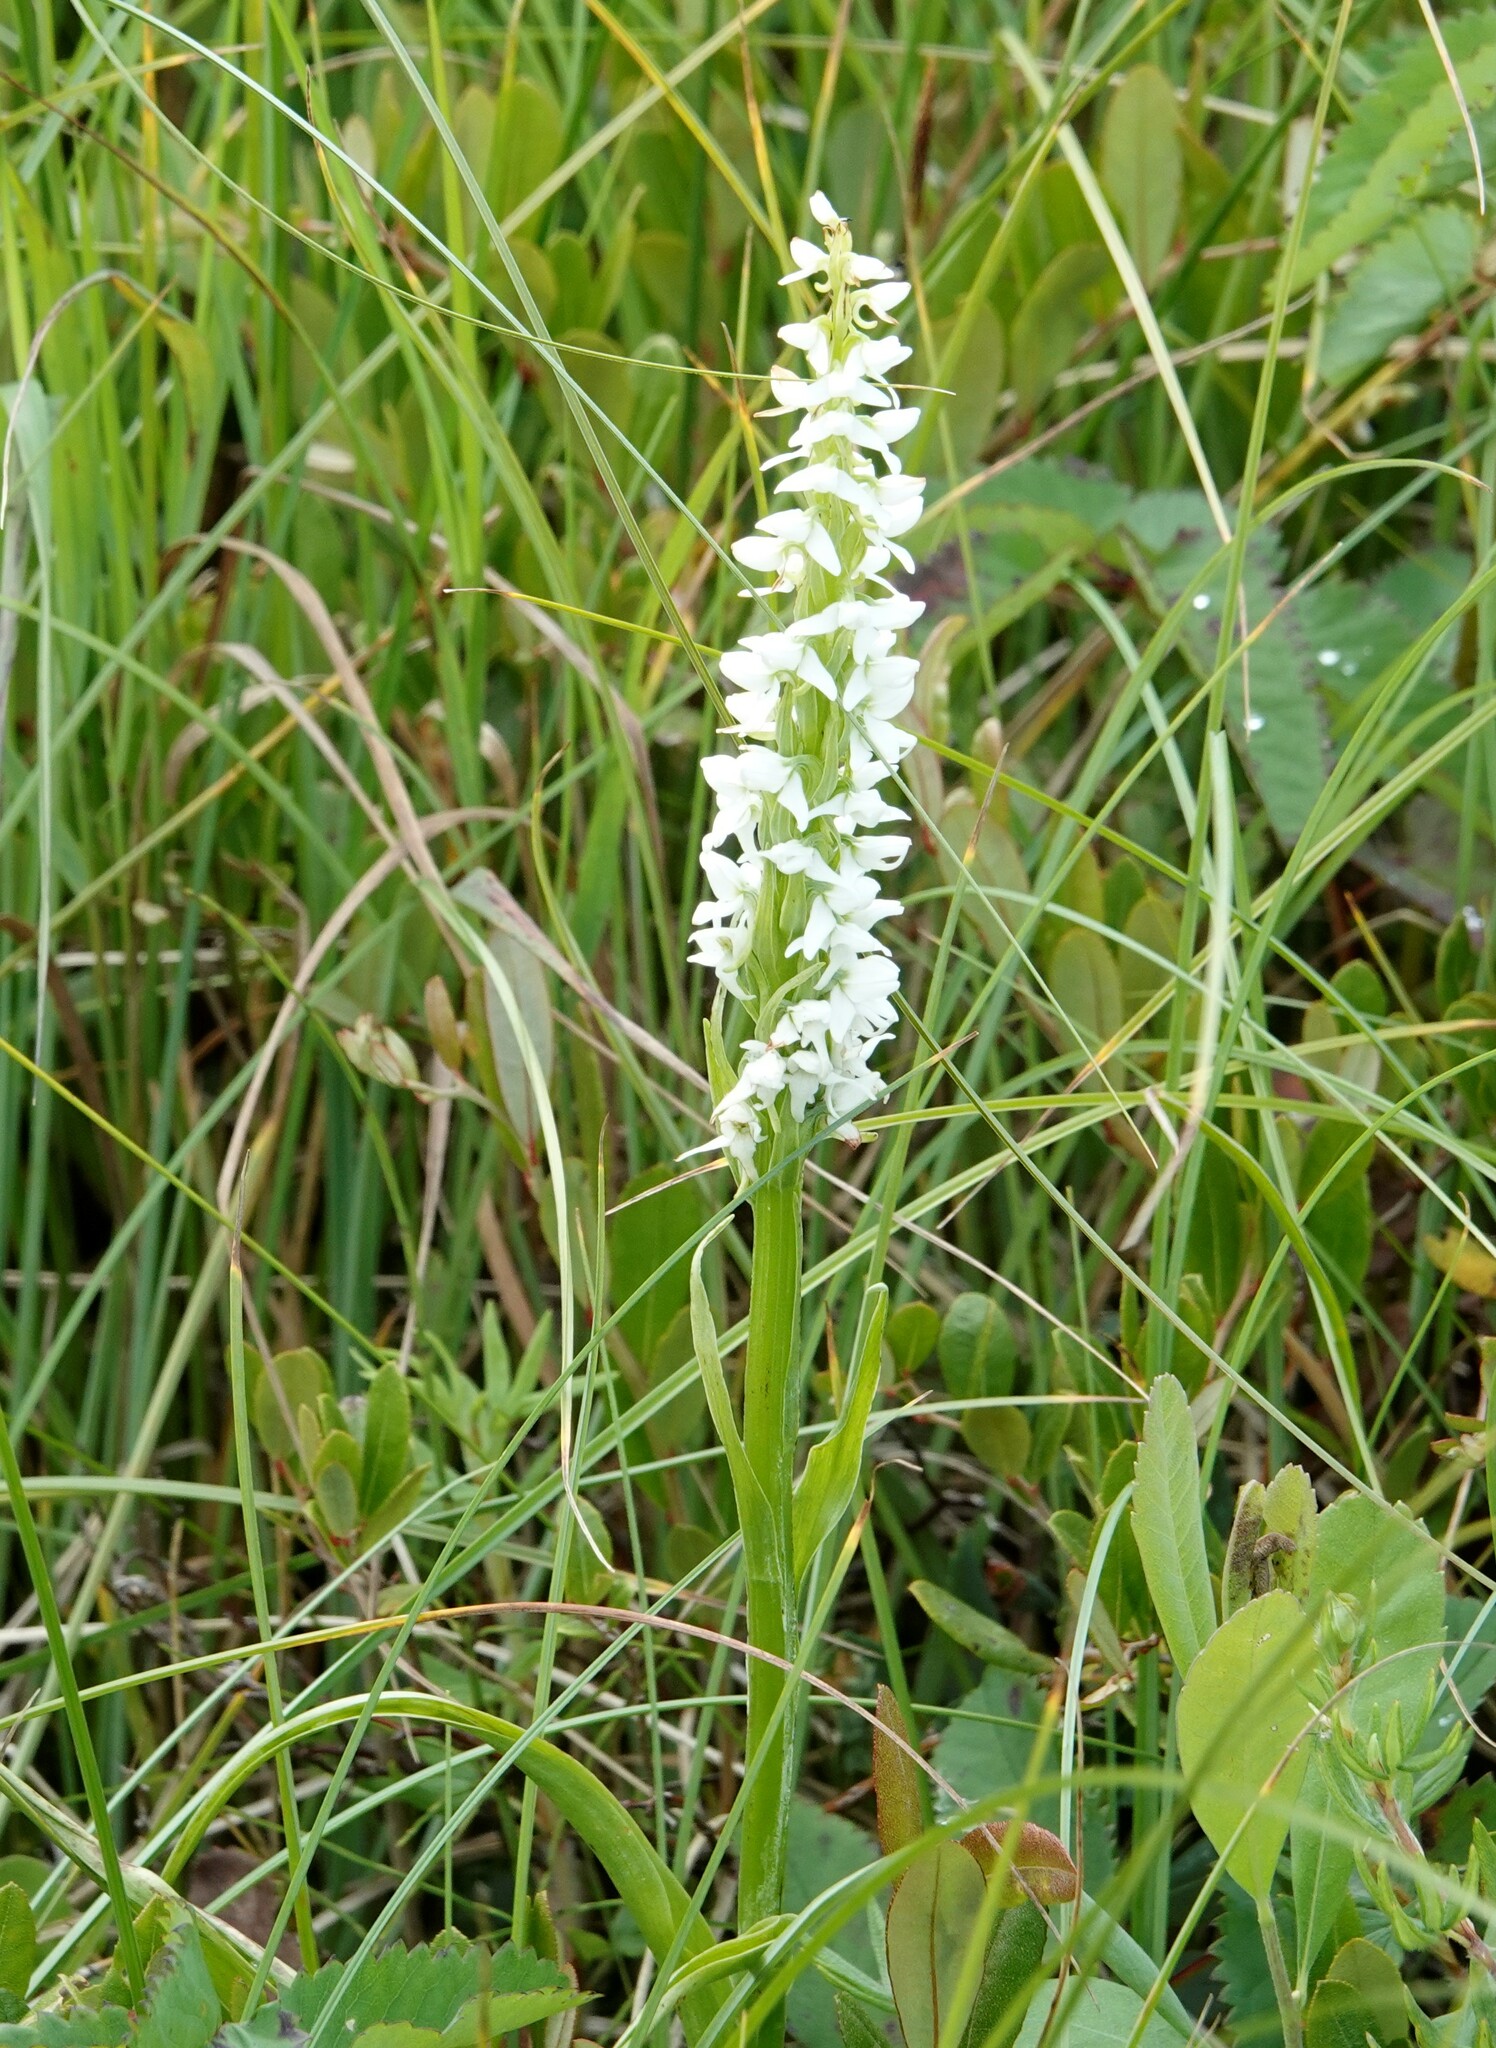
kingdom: Plantae
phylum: Tracheophyta
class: Liliopsida
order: Asparagales
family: Orchidaceae
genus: Platanthera
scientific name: Platanthera dilatata
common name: Bog candles
